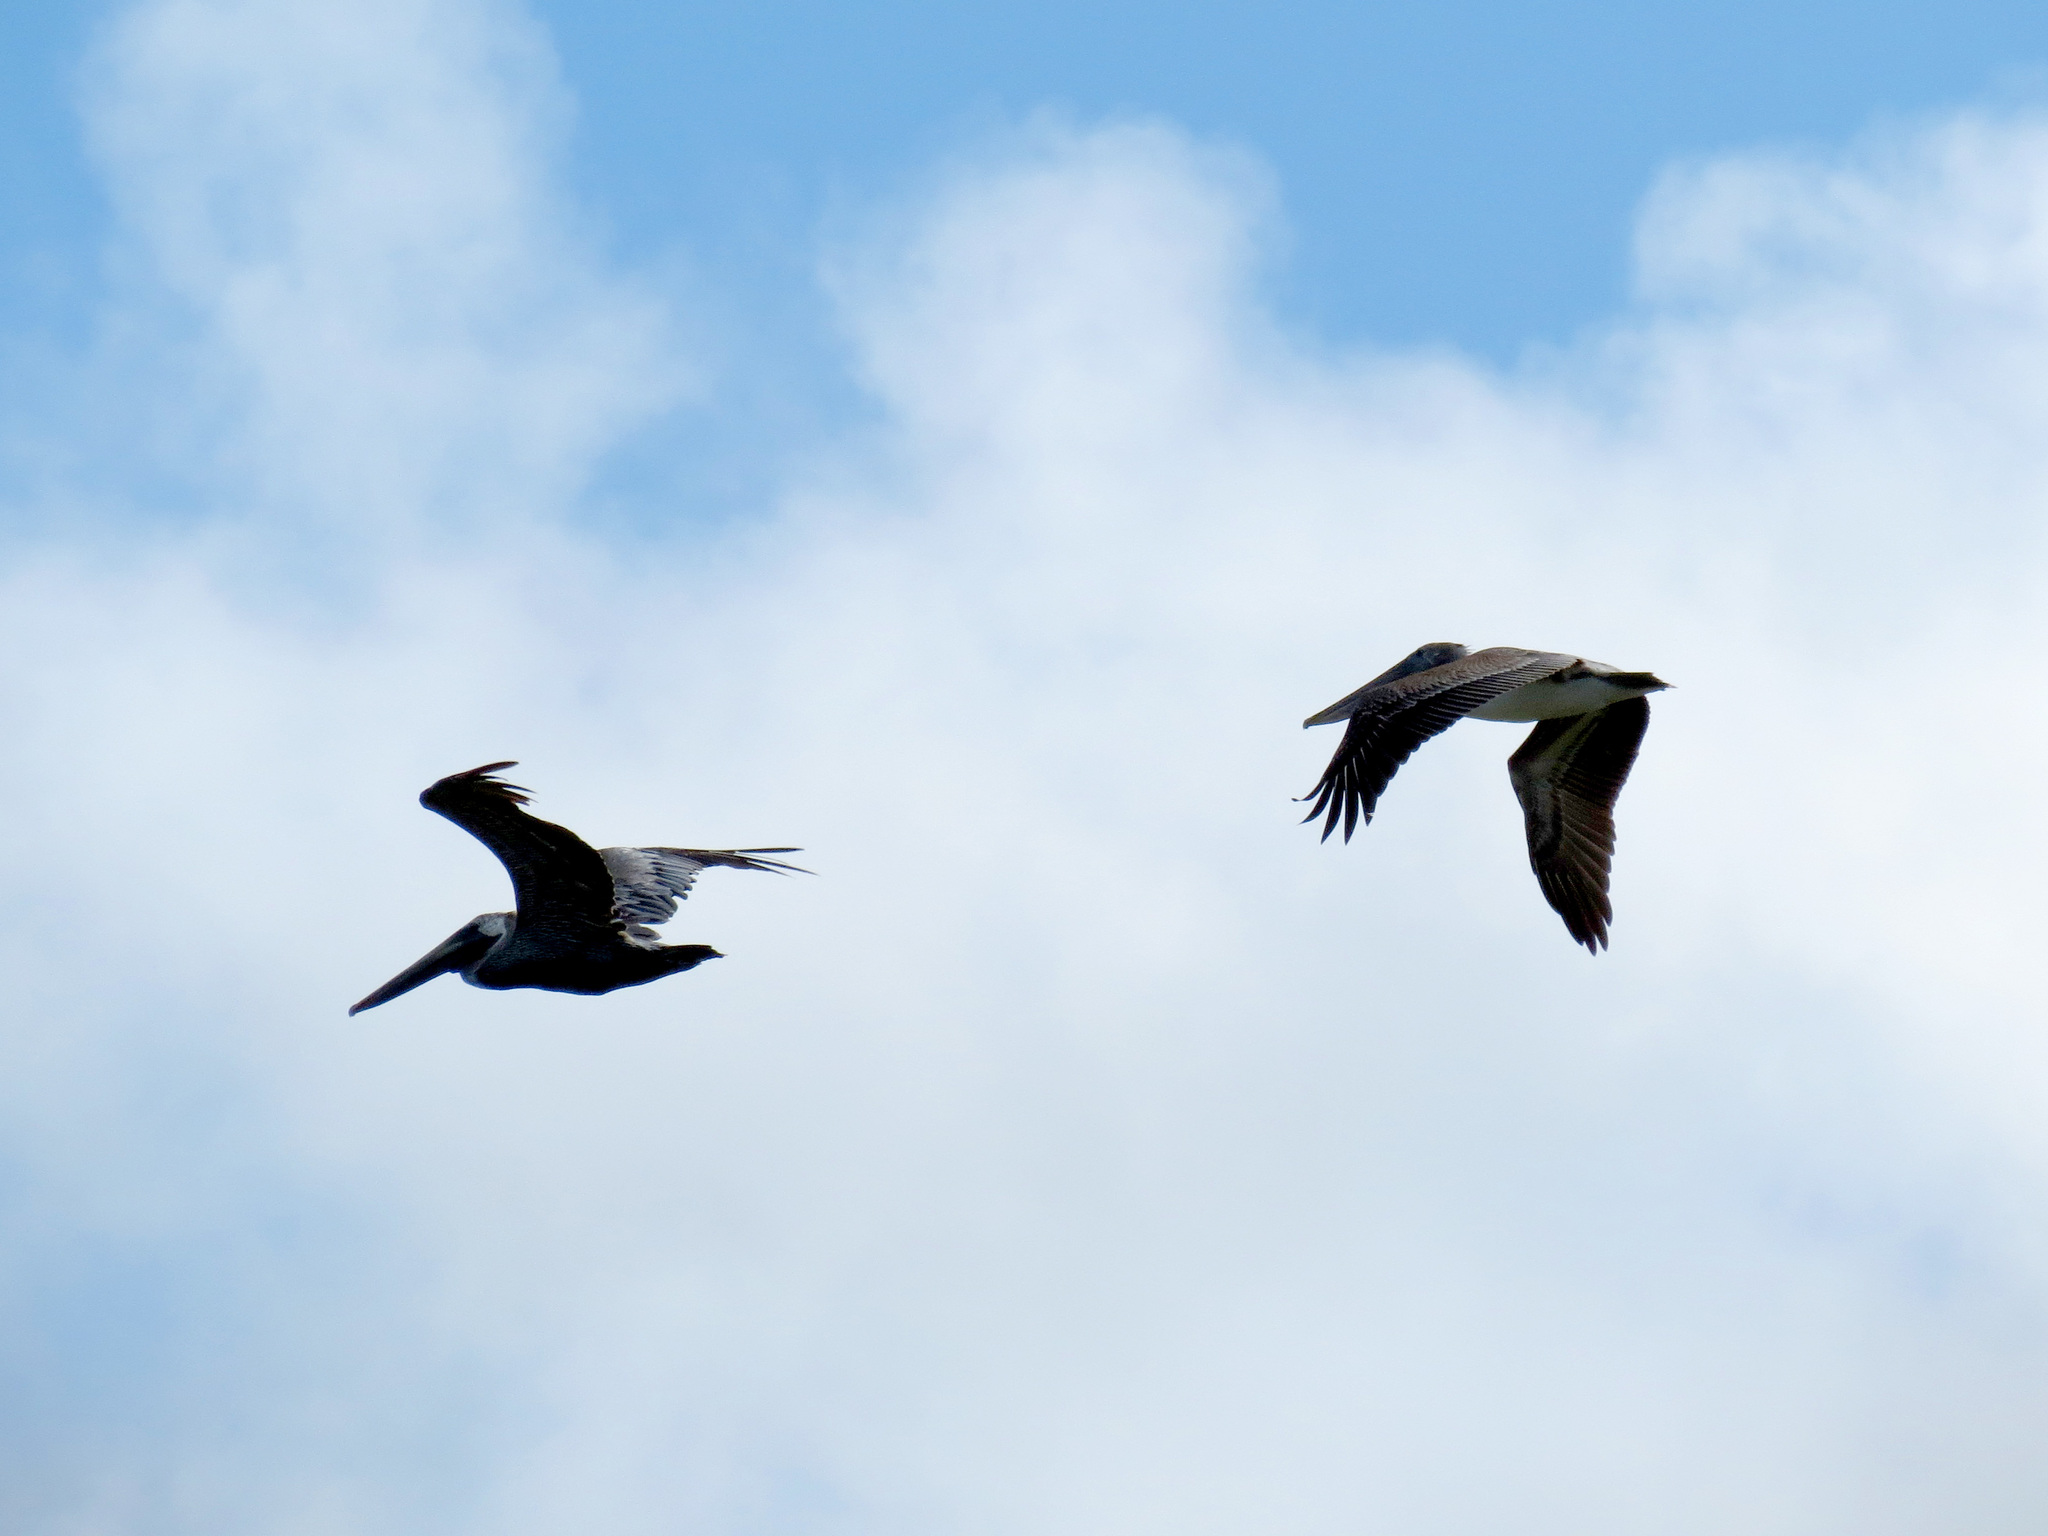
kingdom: Animalia
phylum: Chordata
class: Aves
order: Pelecaniformes
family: Pelecanidae
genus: Pelecanus
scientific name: Pelecanus occidentalis
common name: Brown pelican
